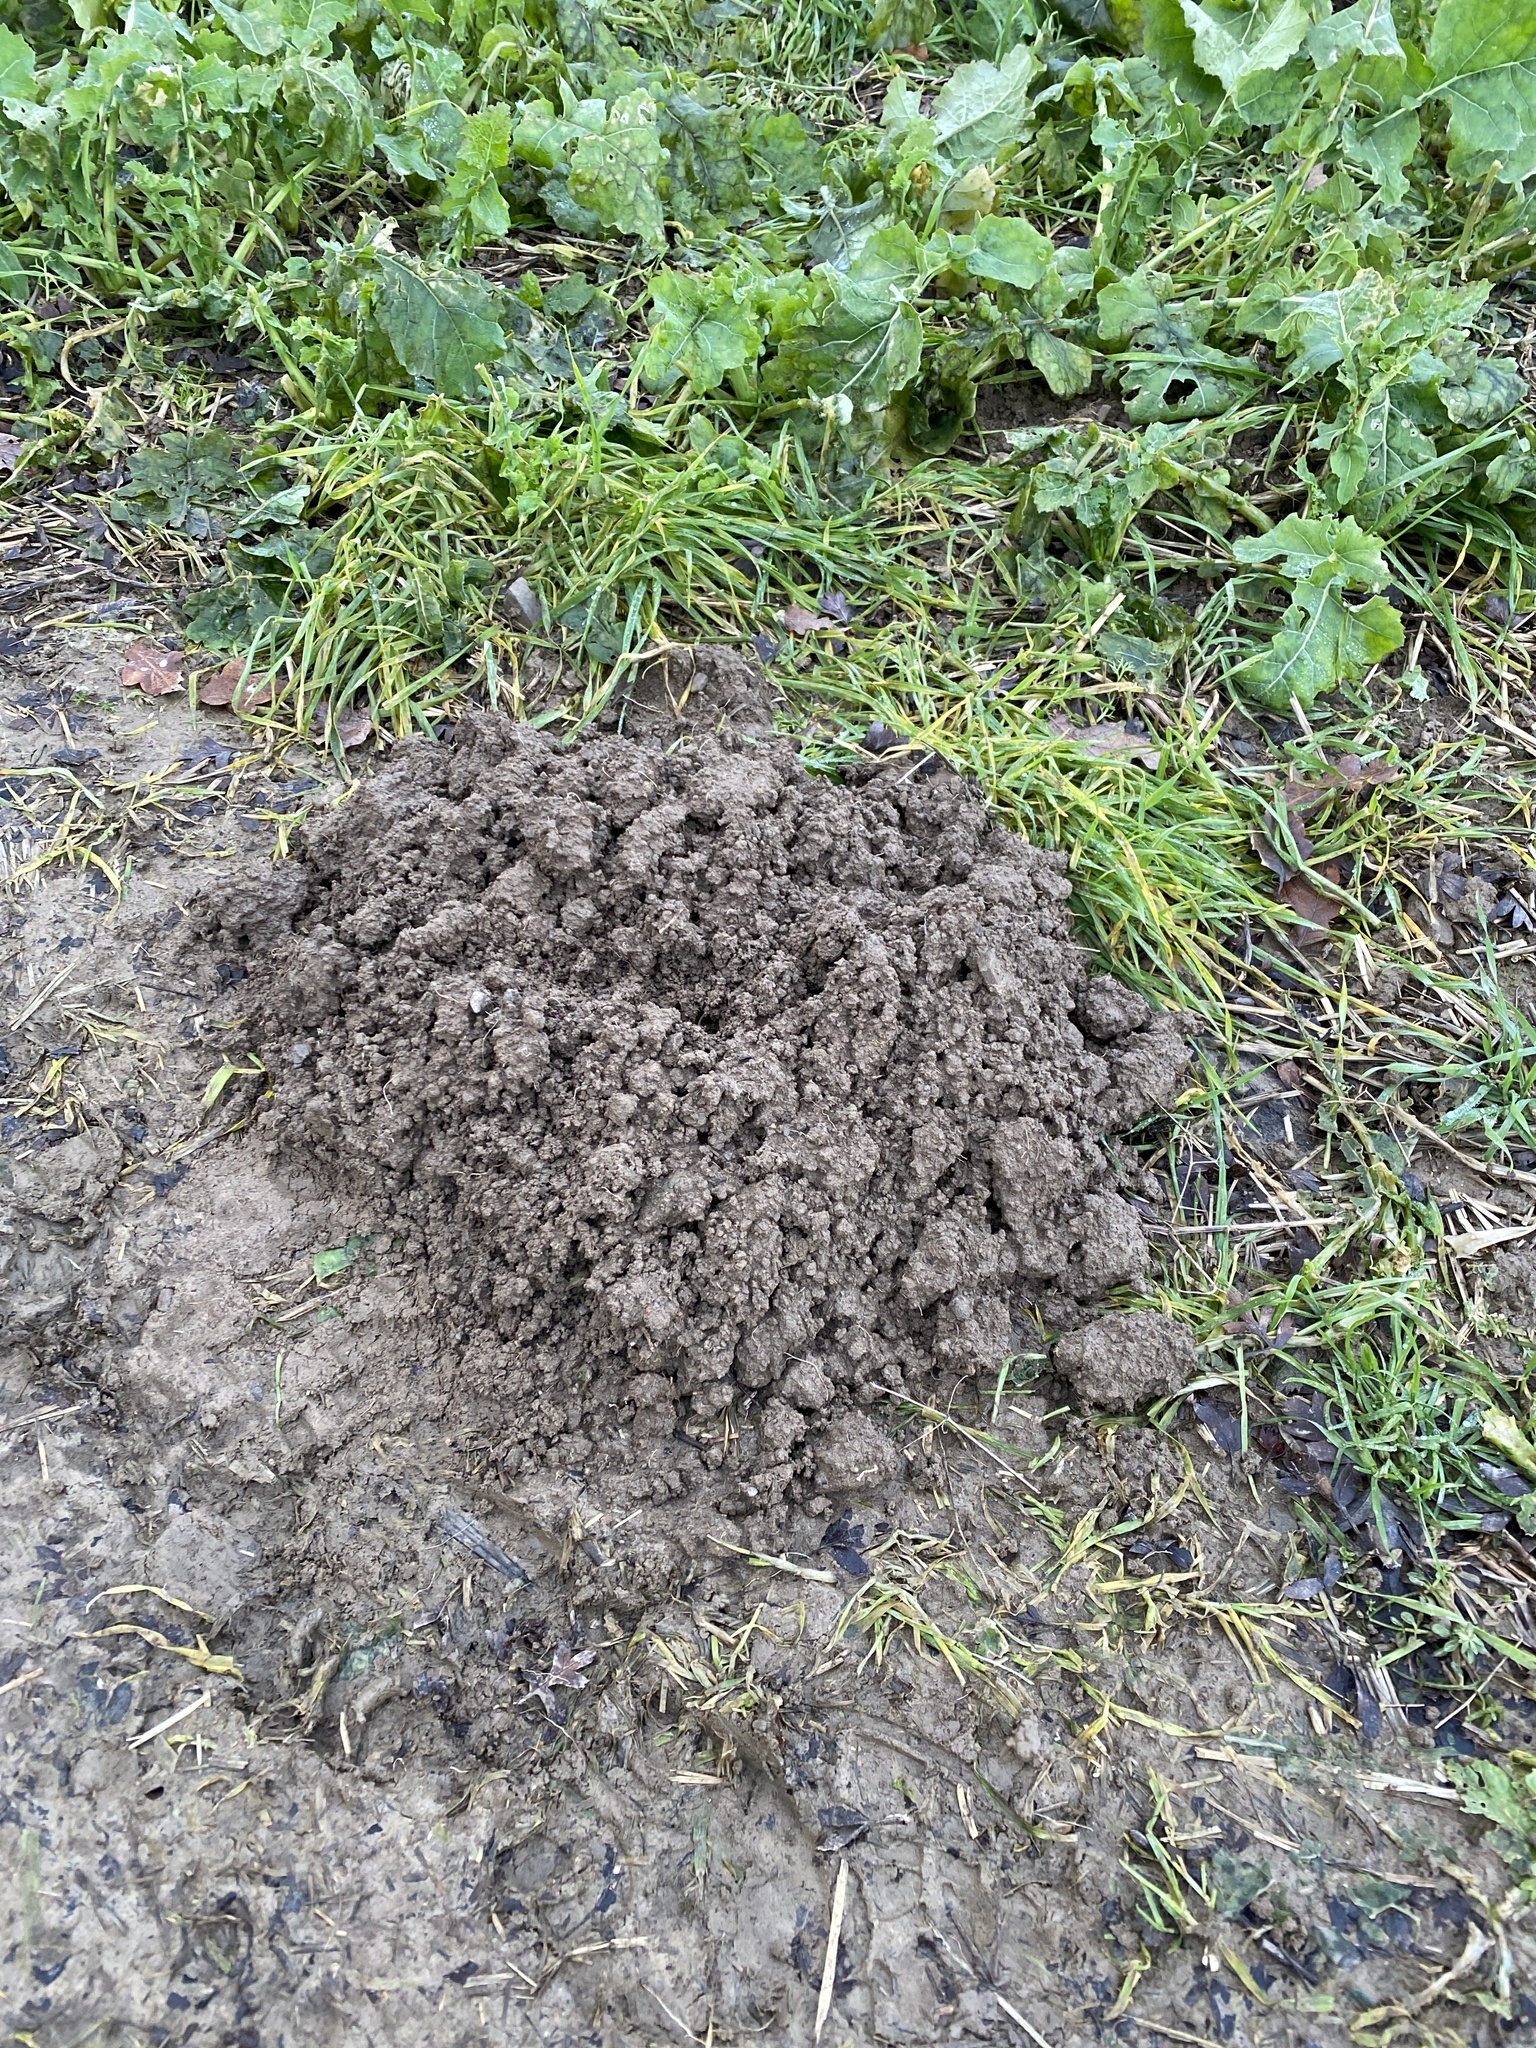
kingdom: Animalia
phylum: Chordata
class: Mammalia
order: Soricomorpha
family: Talpidae
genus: Talpa
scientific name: Talpa europaea
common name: European mole
